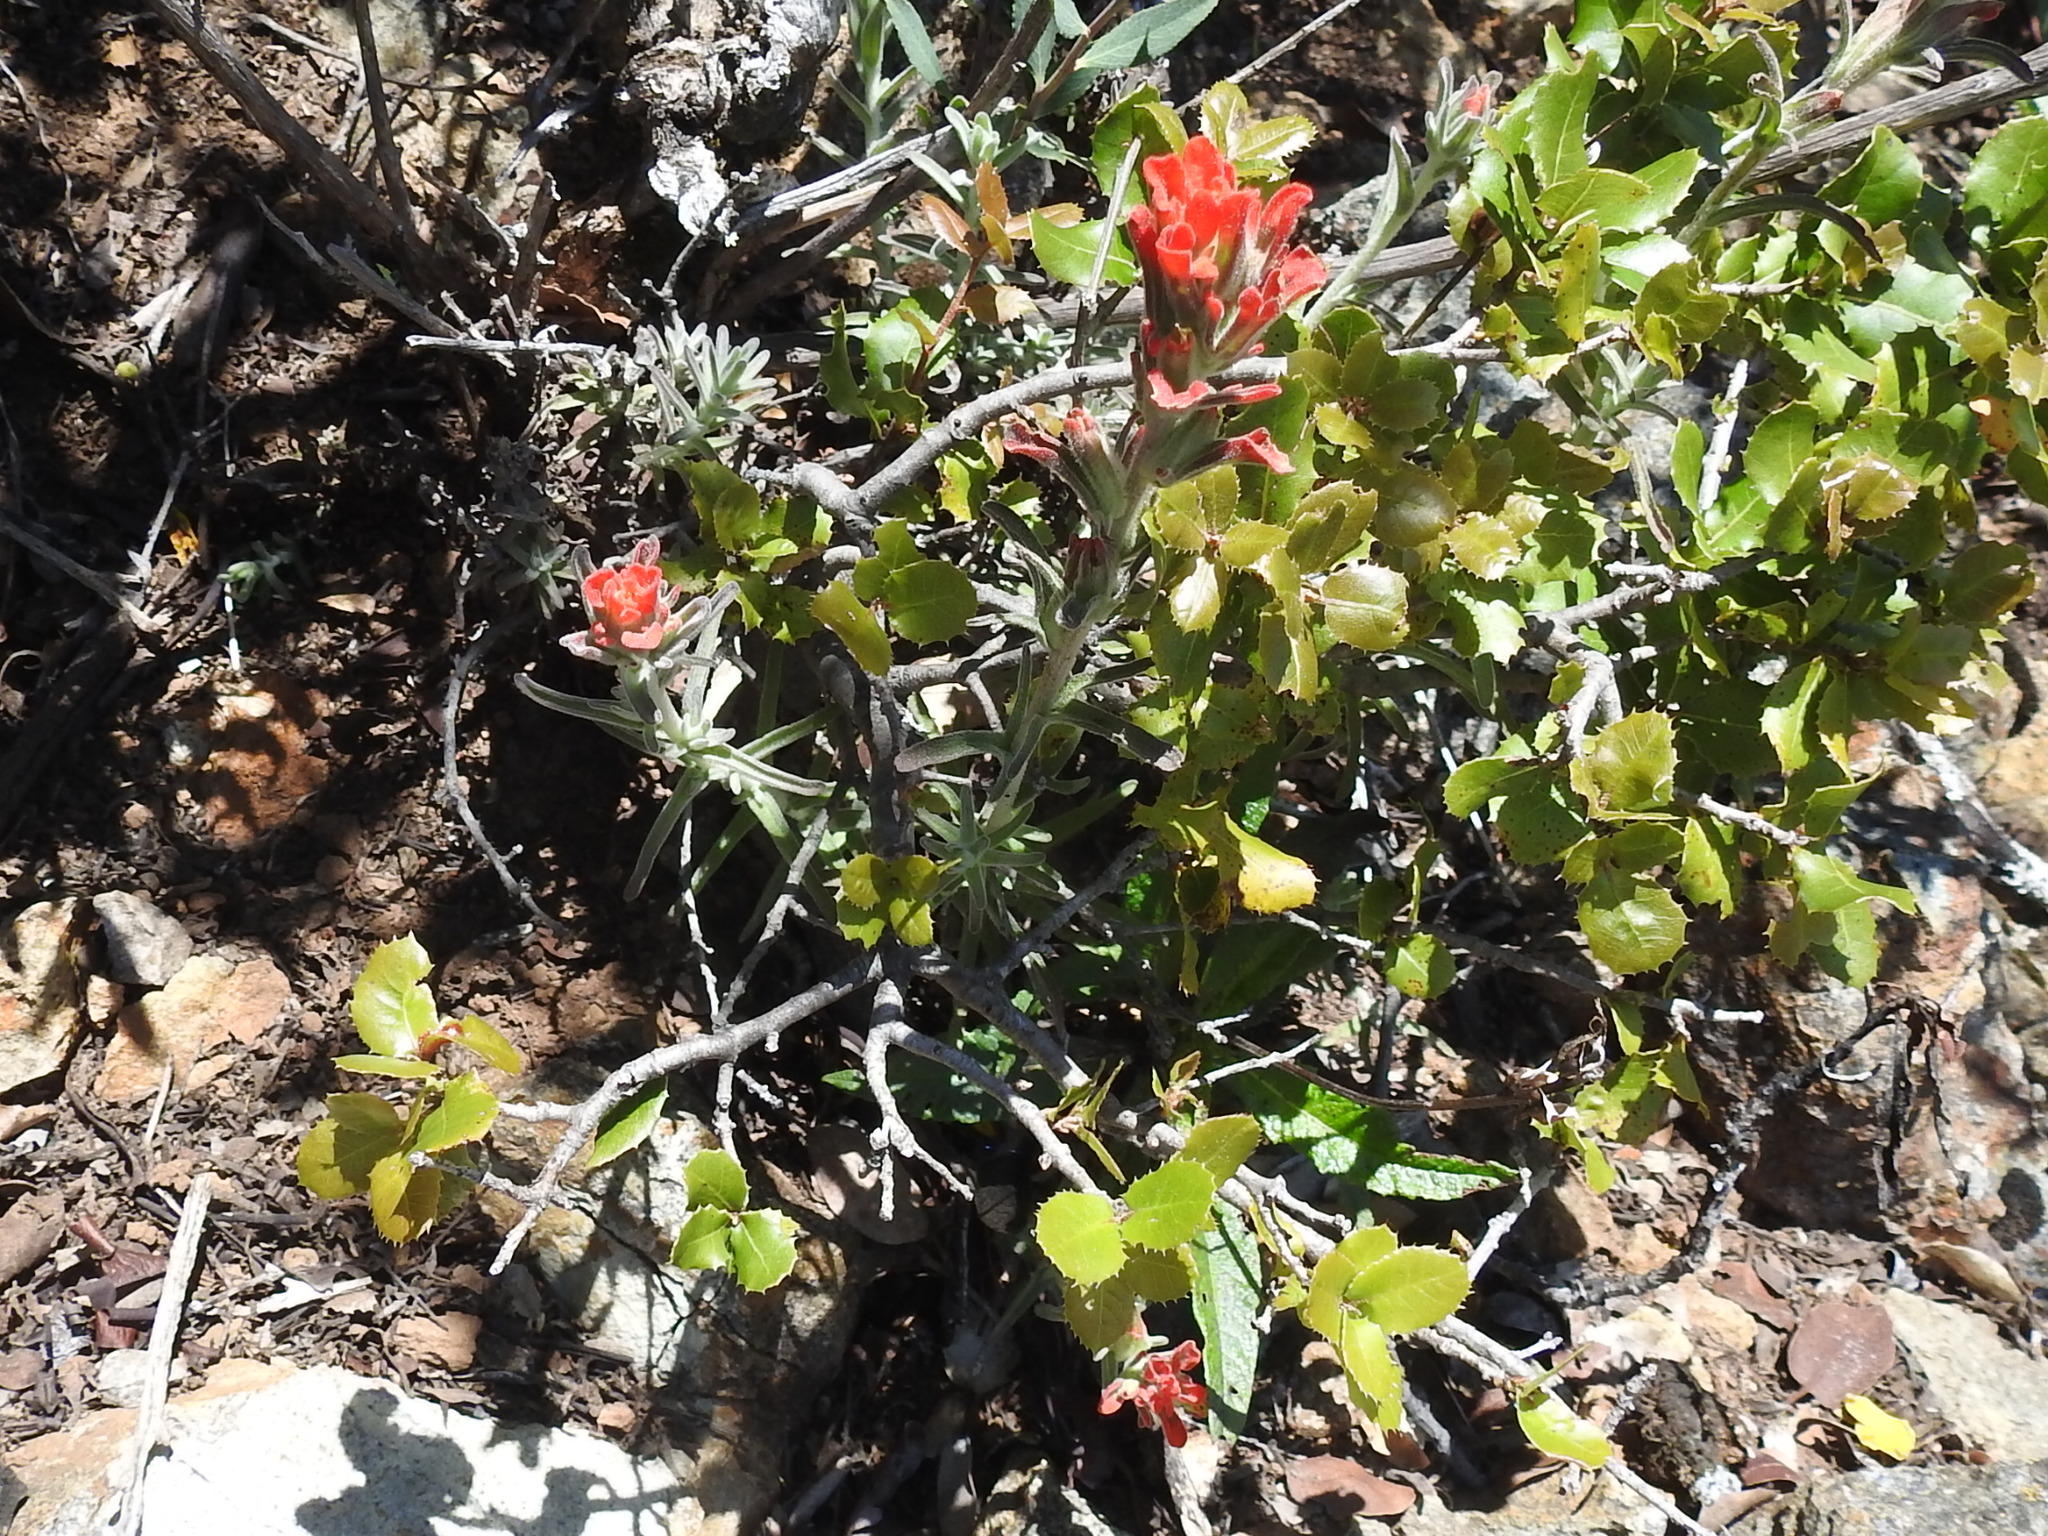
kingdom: Plantae
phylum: Tracheophyta
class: Magnoliopsida
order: Lamiales
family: Orobanchaceae
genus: Castilleja
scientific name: Castilleja foliolosa
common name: Woolly indian paintbrush
